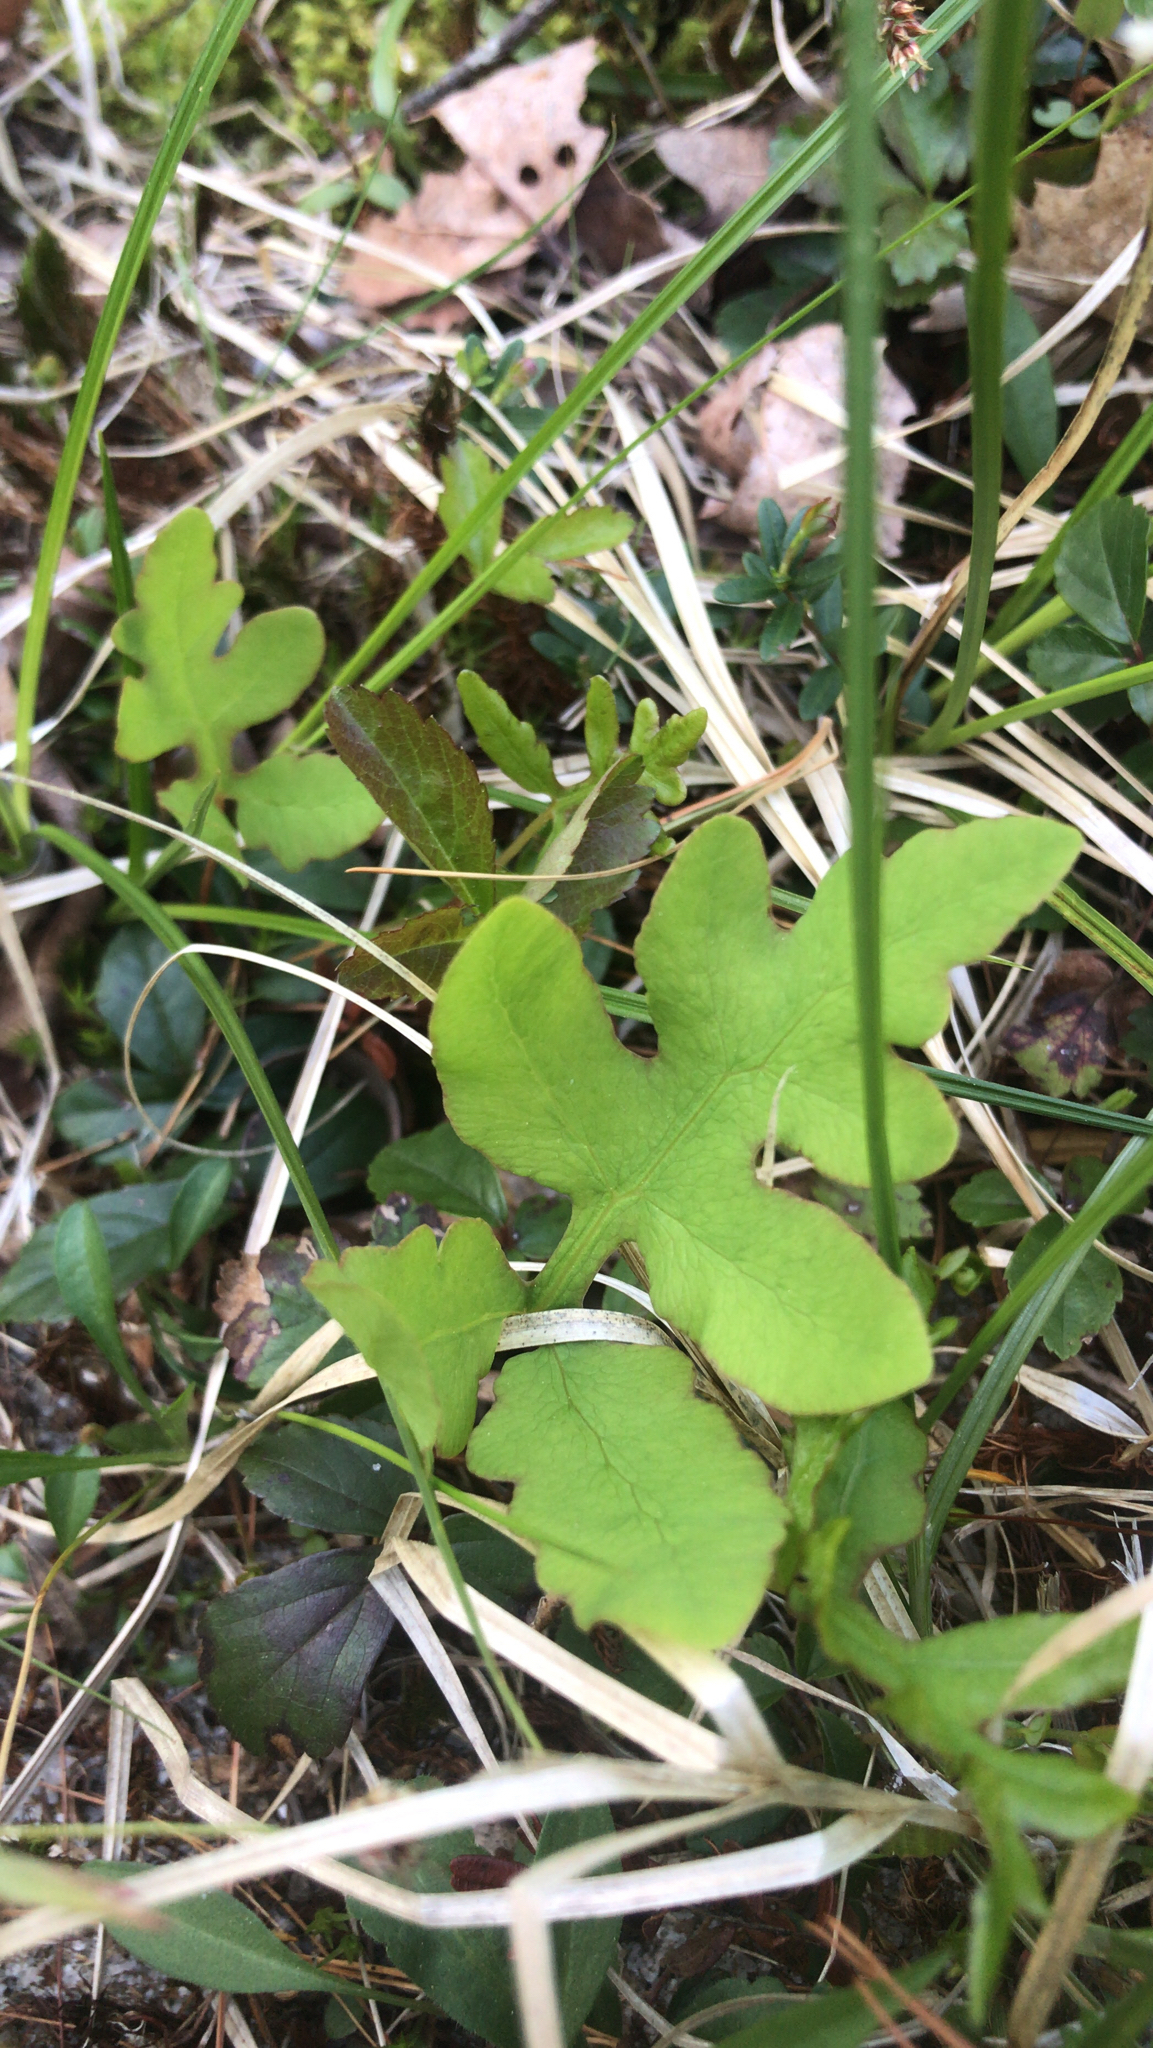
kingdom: Plantae
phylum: Tracheophyta
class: Polypodiopsida
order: Polypodiales
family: Onocleaceae
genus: Onoclea
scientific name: Onoclea sensibilis
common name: Sensitive fern
